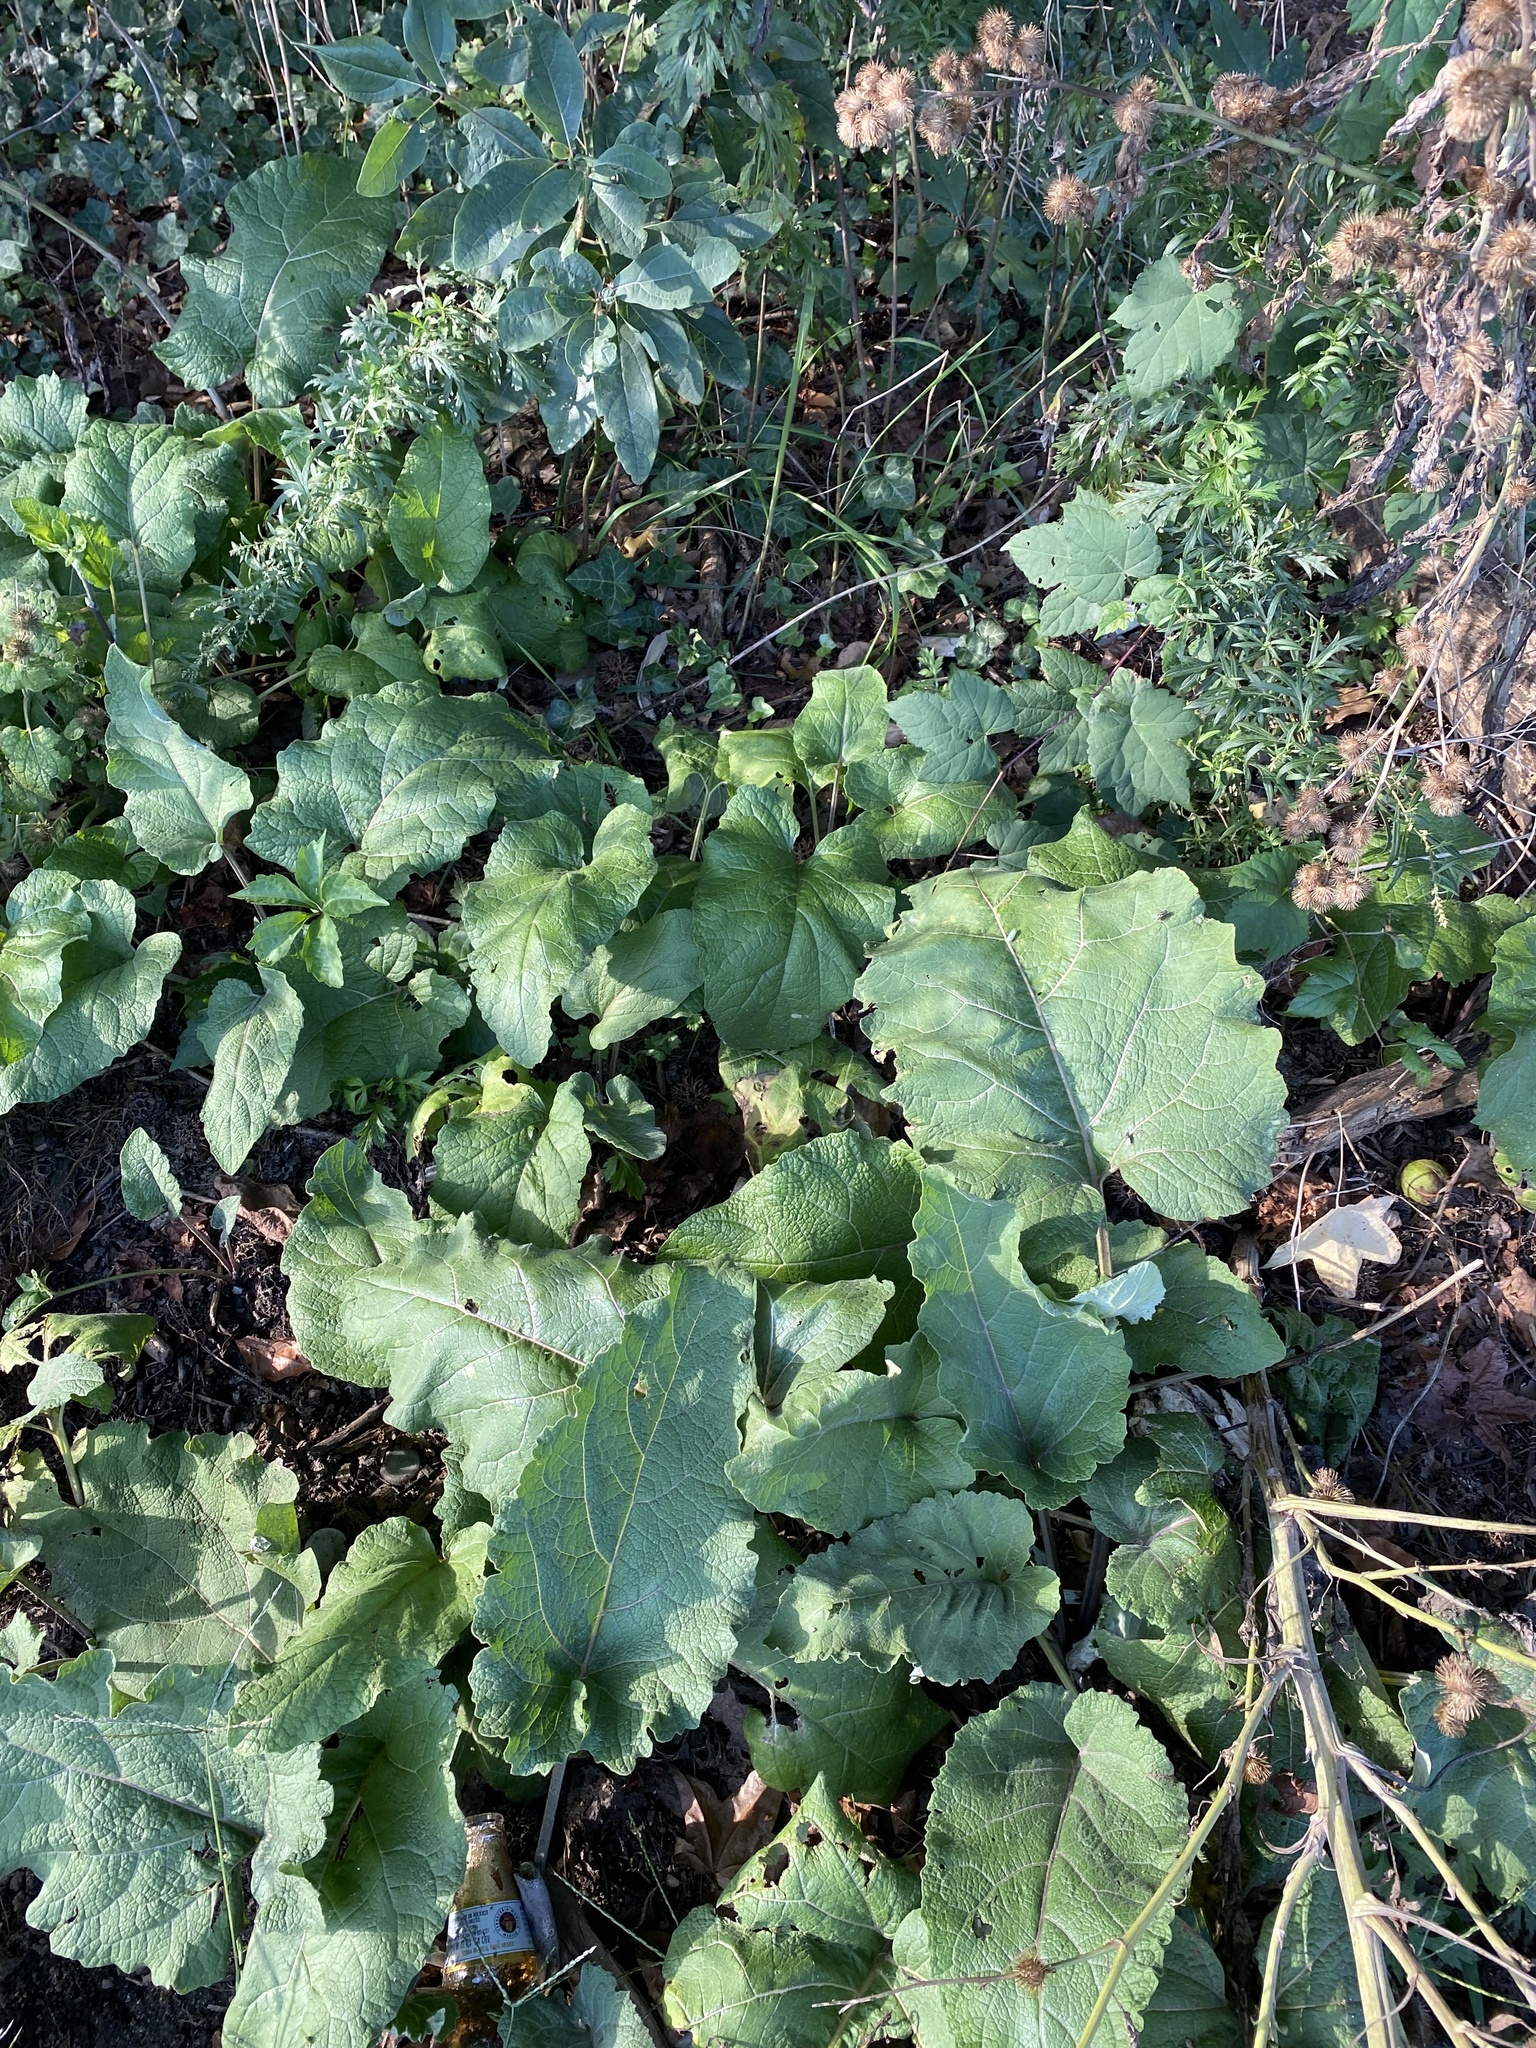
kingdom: Plantae
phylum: Tracheophyta
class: Magnoliopsida
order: Asterales
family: Asteraceae
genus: Arctium
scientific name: Arctium
